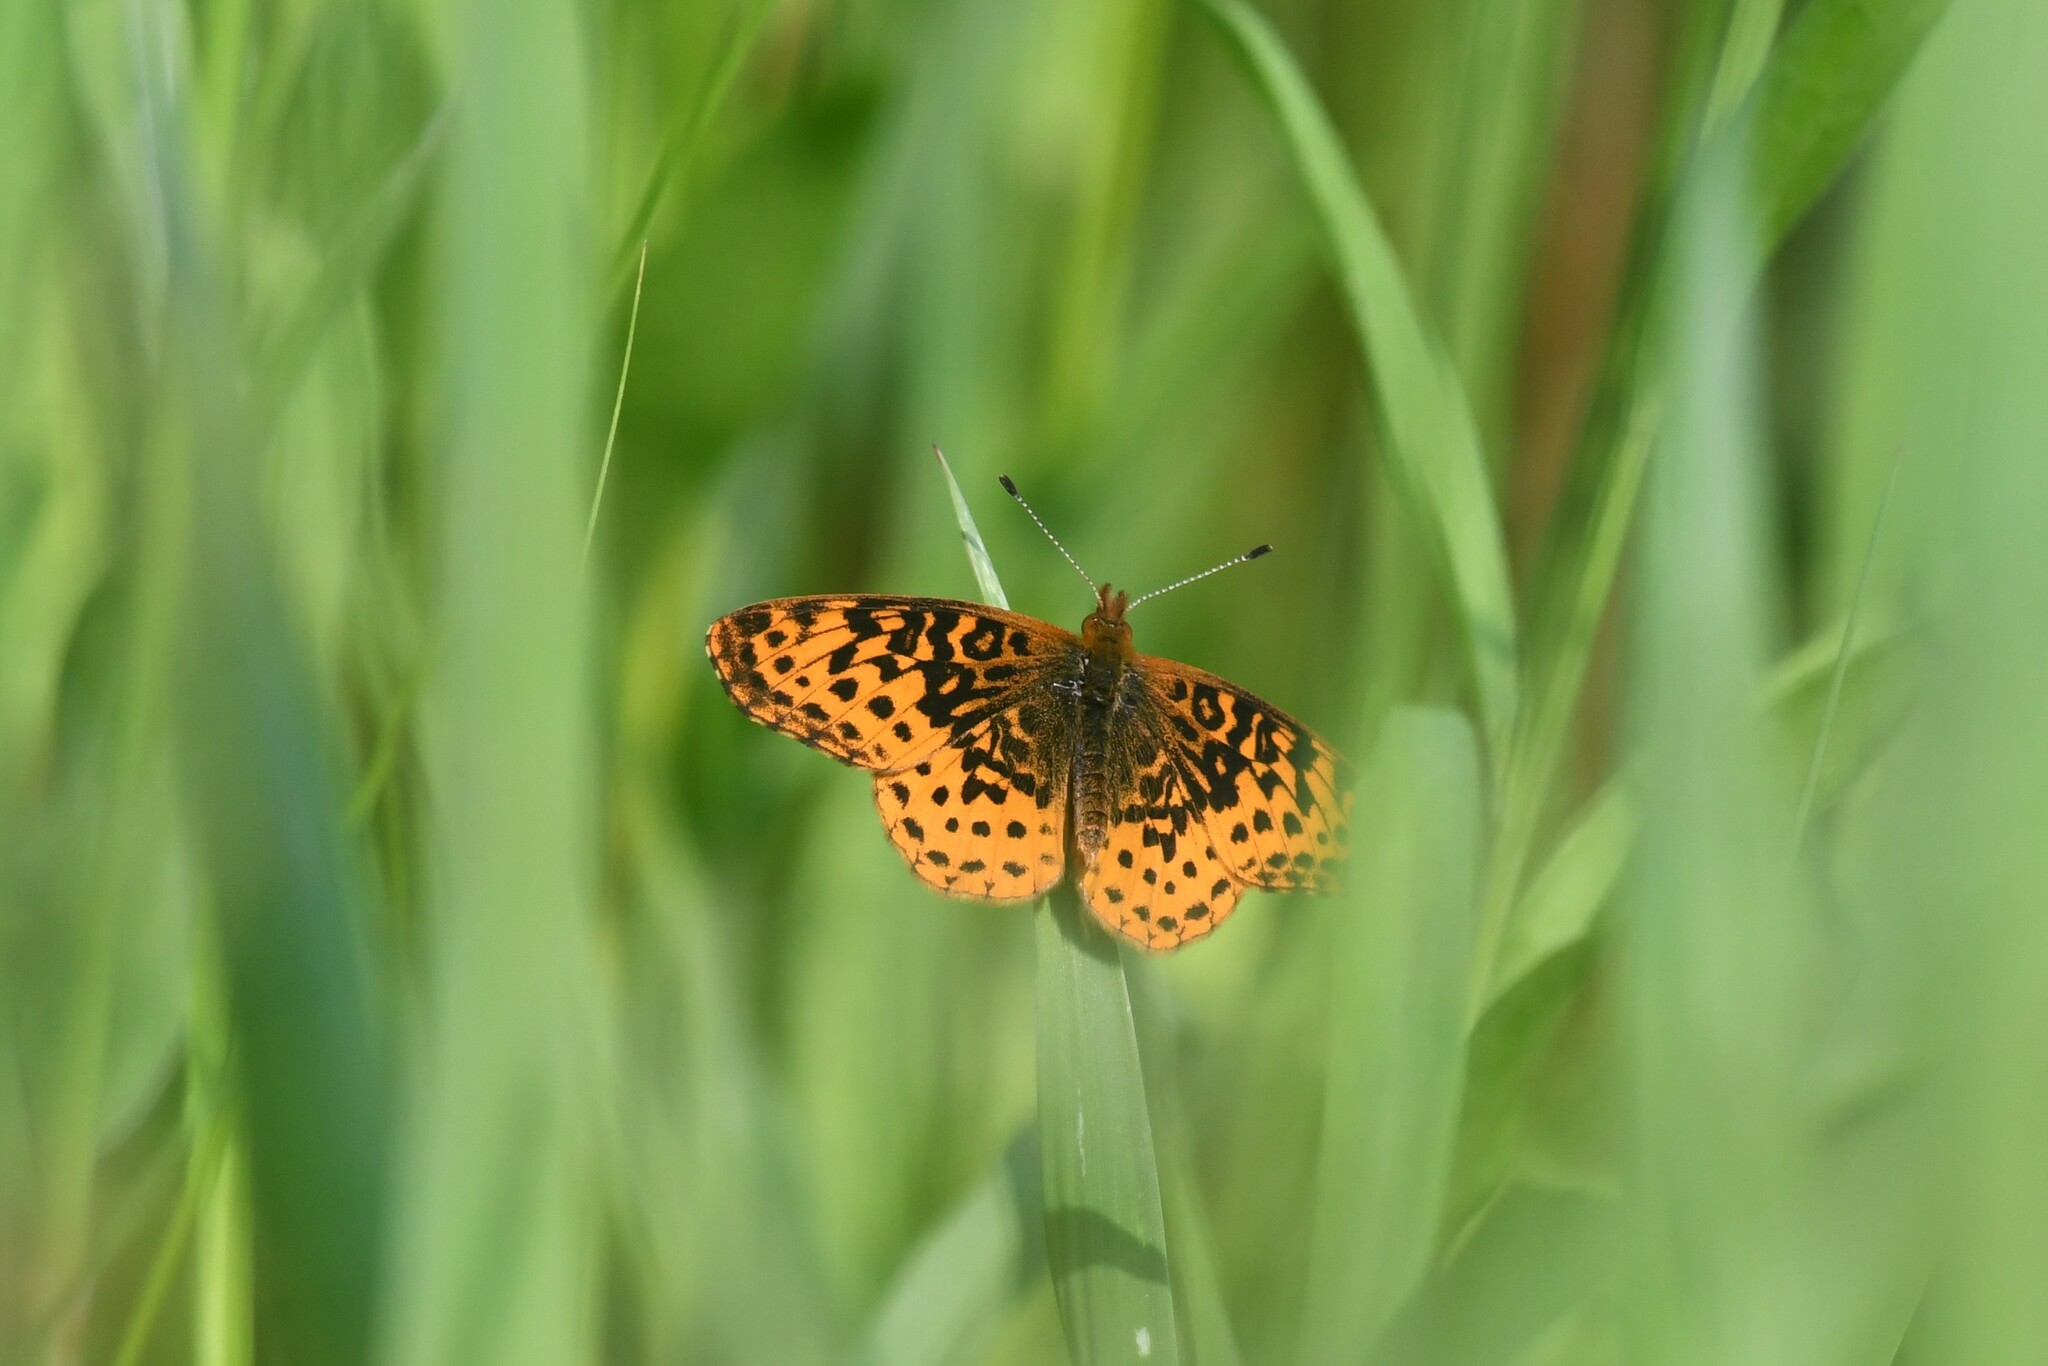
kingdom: Animalia
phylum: Arthropoda
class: Insecta
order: Lepidoptera
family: Nymphalidae
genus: Clossiana
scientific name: Clossiana toddi
